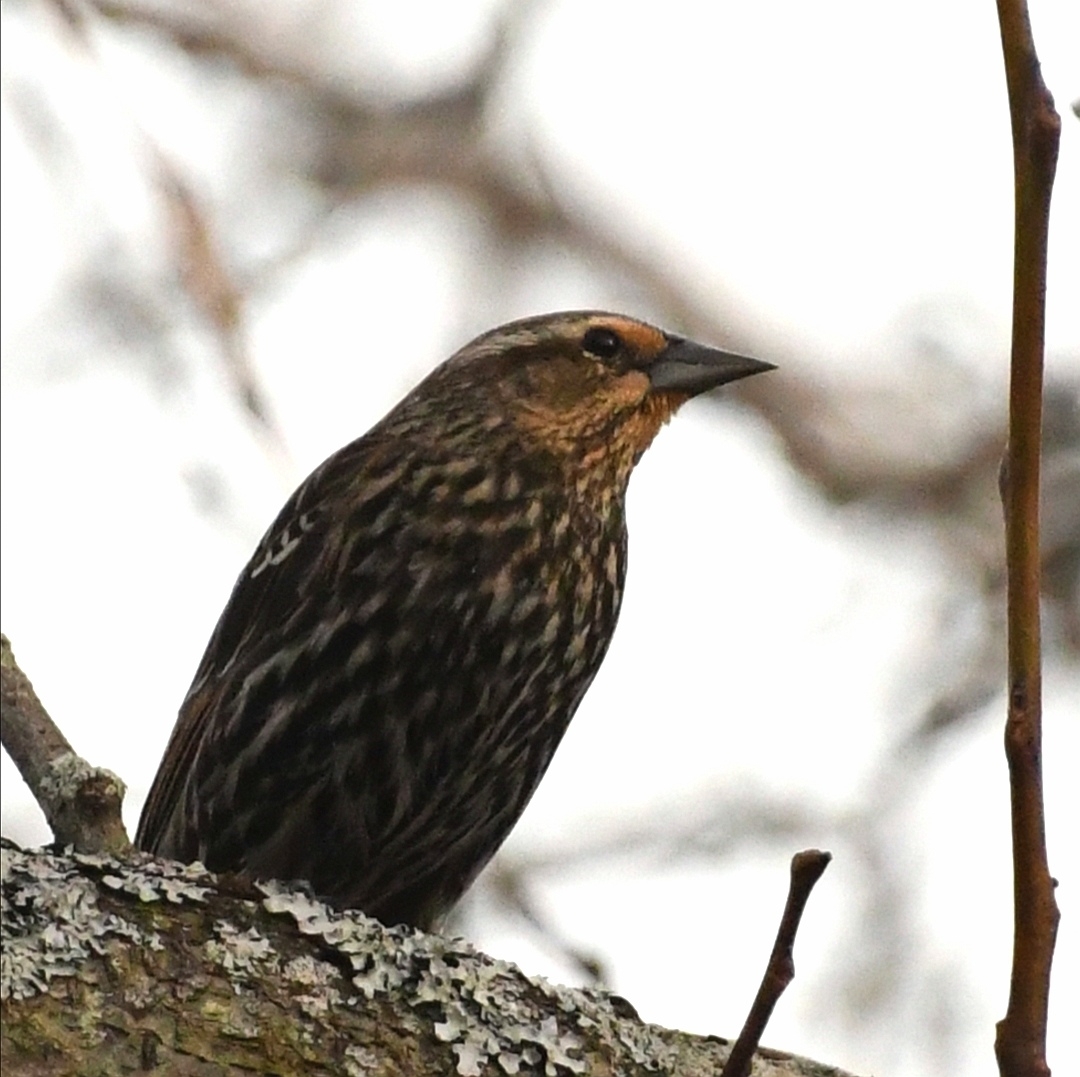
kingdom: Animalia
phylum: Chordata
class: Aves
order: Passeriformes
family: Icteridae
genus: Agelaius
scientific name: Agelaius phoeniceus
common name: Red-winged blackbird
